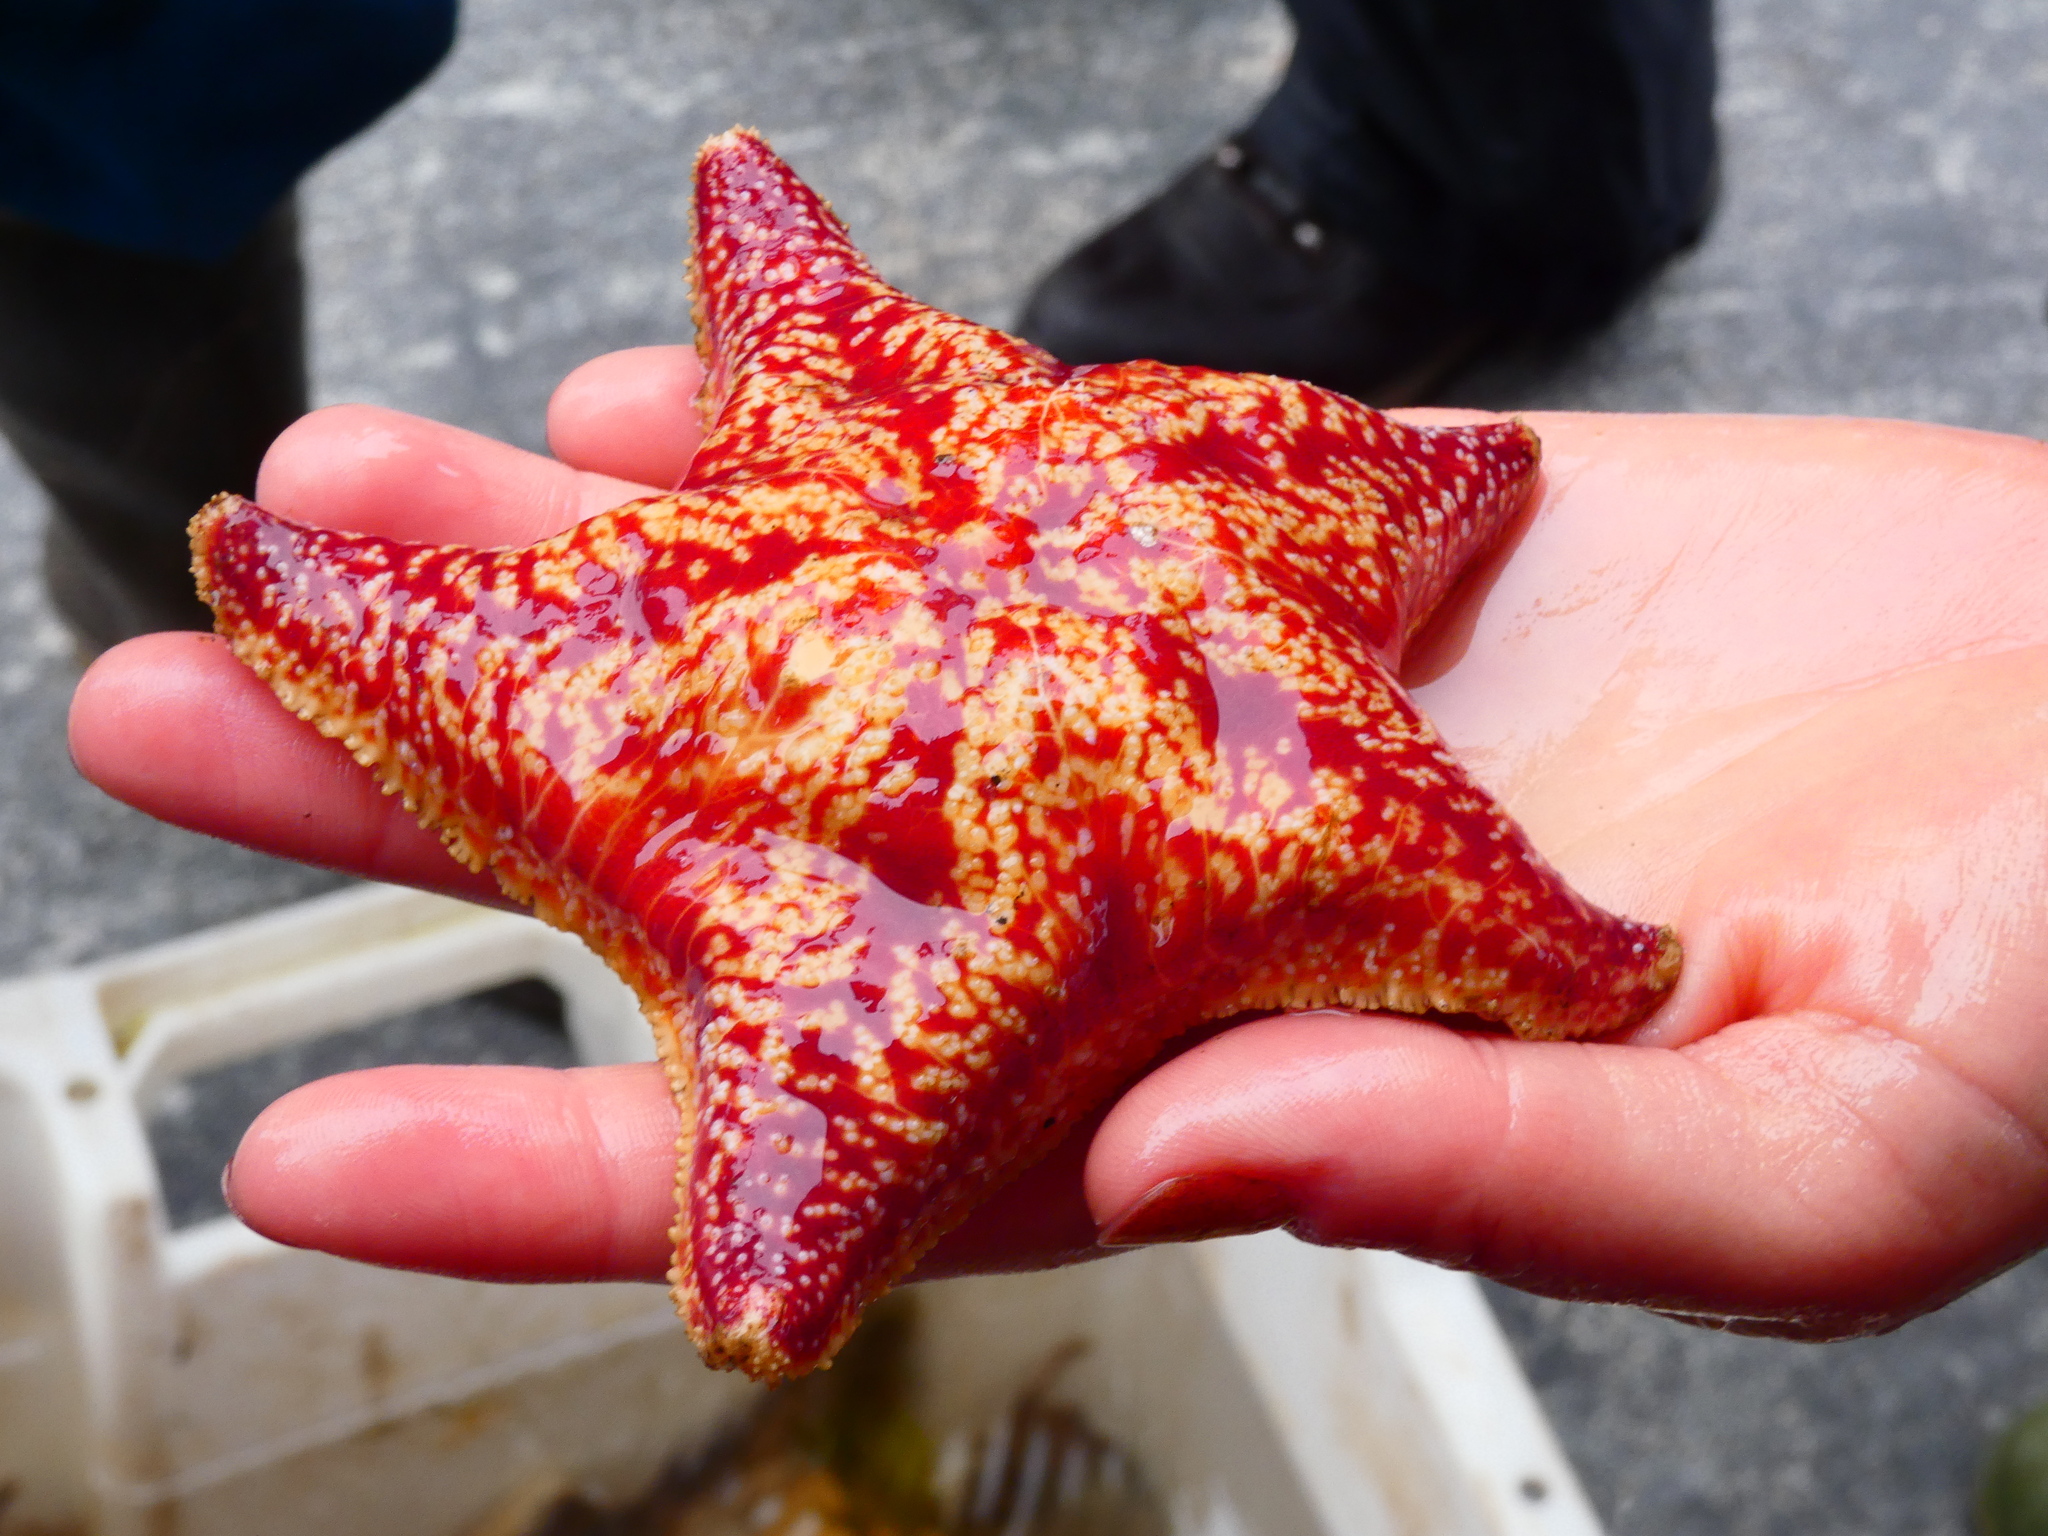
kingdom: Animalia
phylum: Echinodermata
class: Asteroidea
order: Valvatida
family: Poraniidae
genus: Porania
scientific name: Porania pulvillus
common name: Red cushion stat
